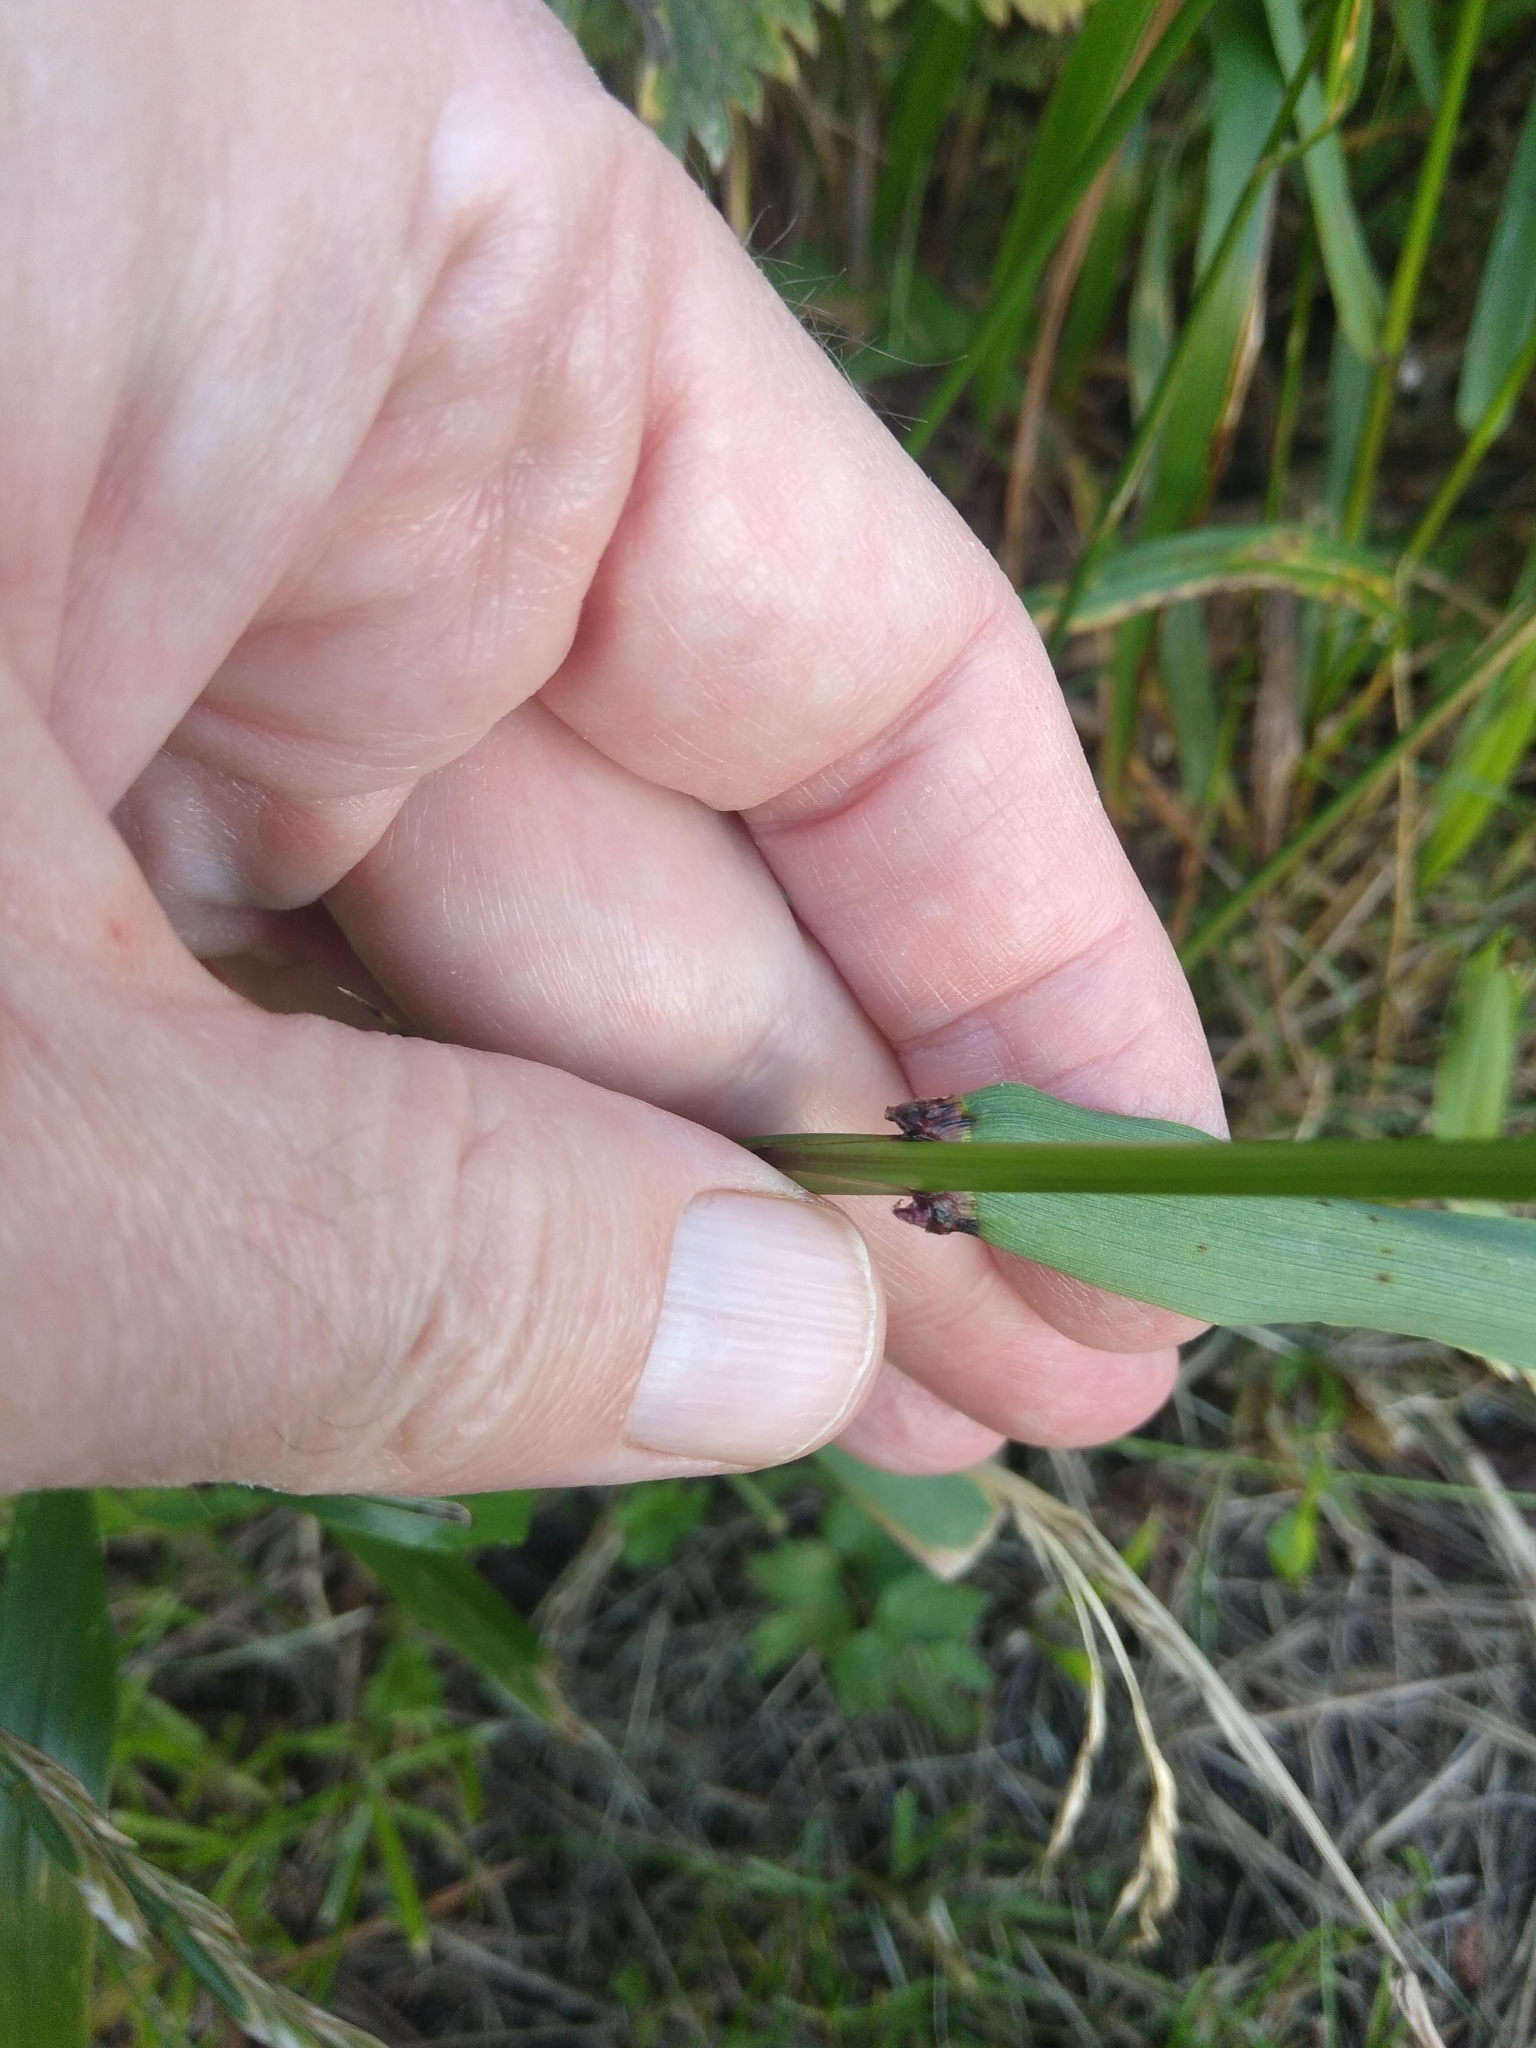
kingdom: Plantae
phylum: Tracheophyta
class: Liliopsida
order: Poales
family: Poaceae
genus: Lolium
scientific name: Lolium giganteum
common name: Giant fescue
